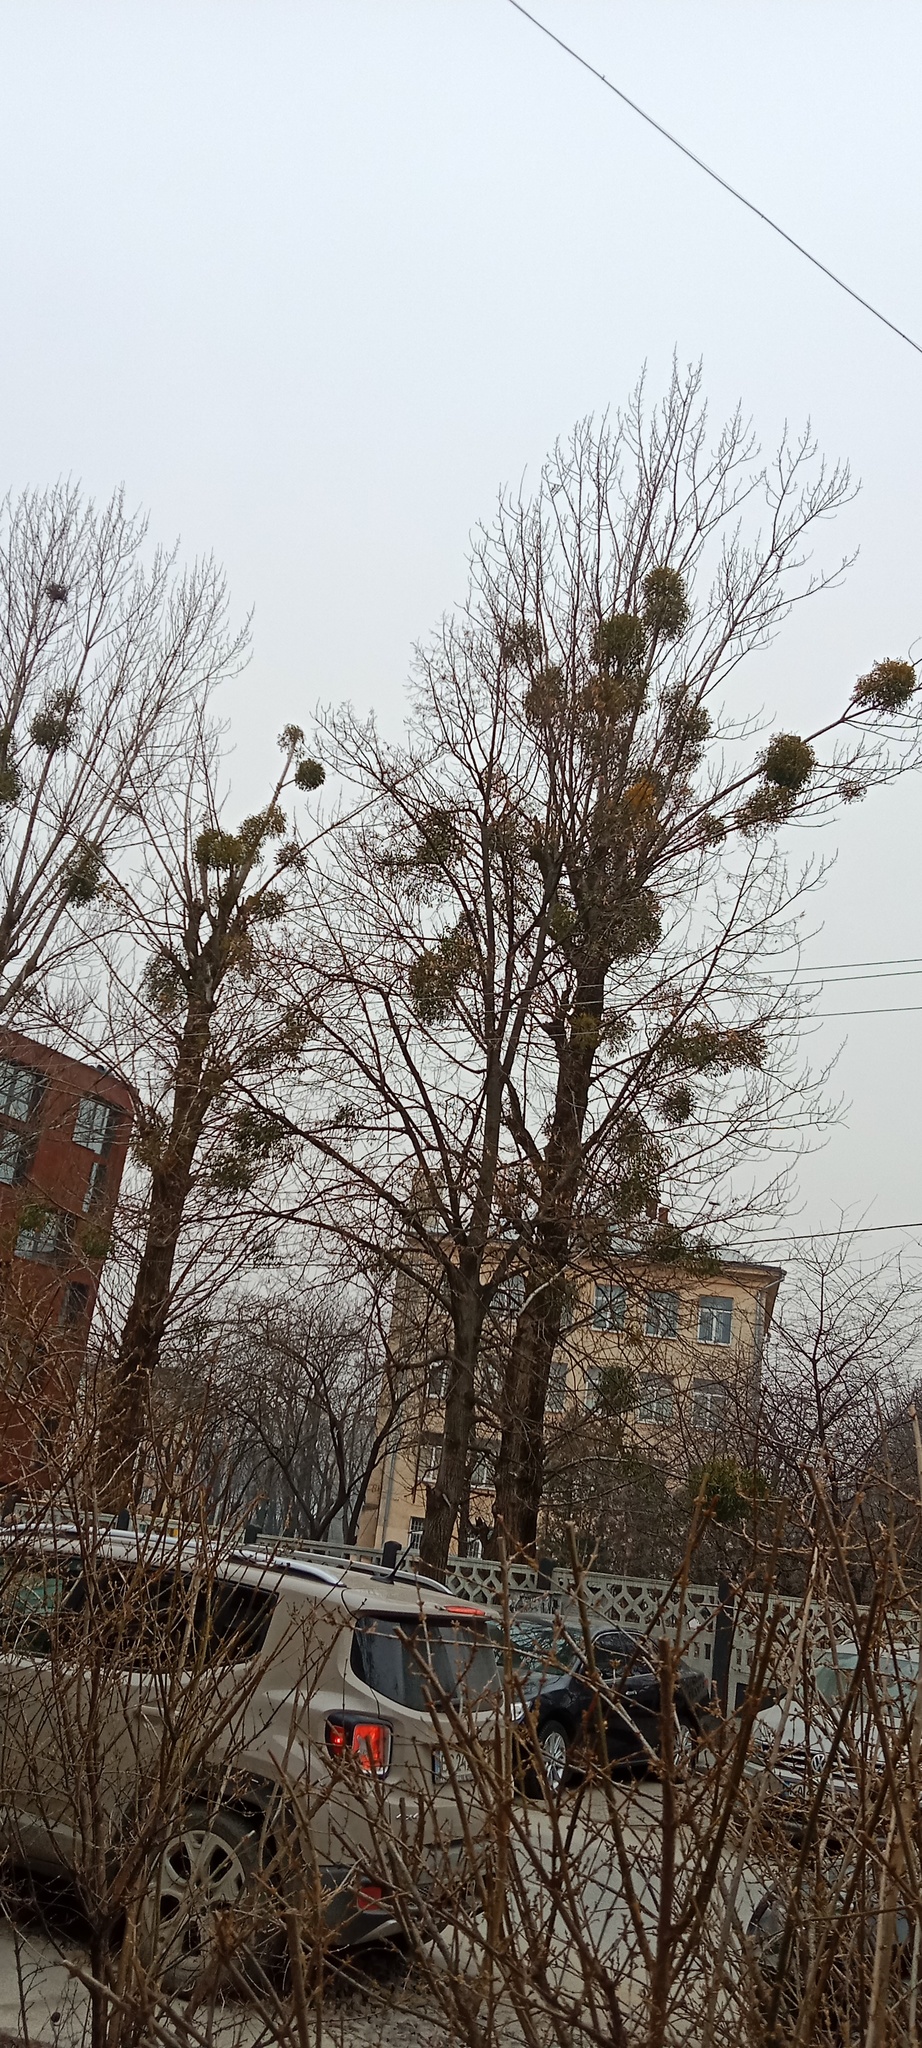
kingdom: Plantae
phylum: Tracheophyta
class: Magnoliopsida
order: Santalales
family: Viscaceae
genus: Viscum
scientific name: Viscum album
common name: Mistletoe
